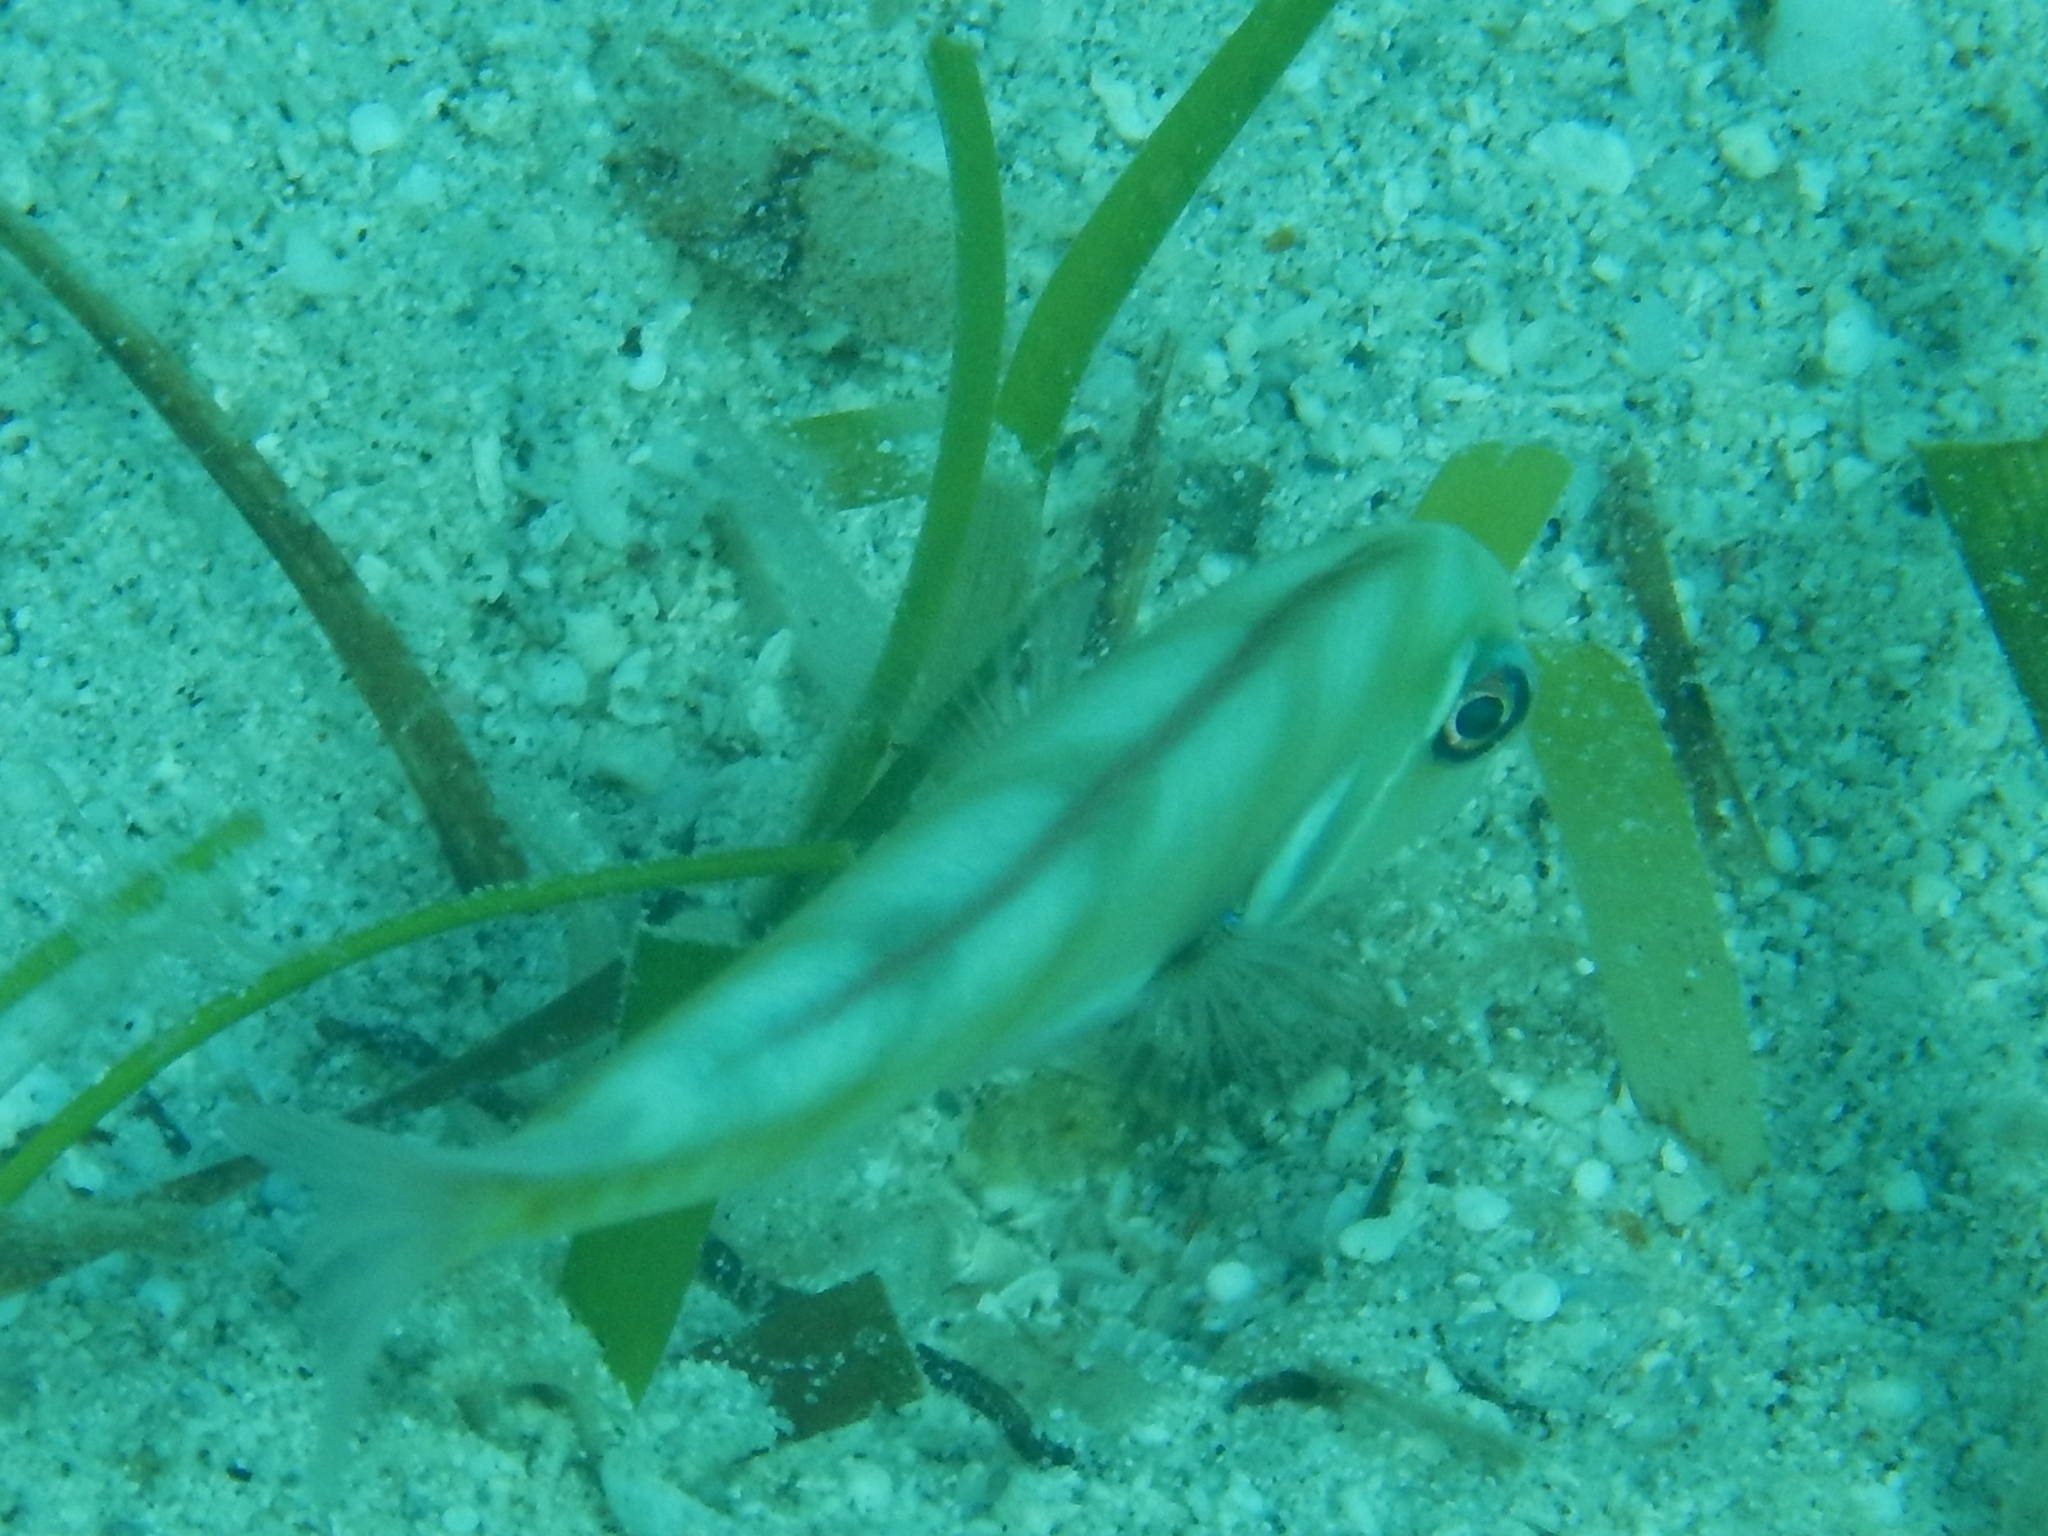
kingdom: Animalia
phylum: Chordata
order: Perciformes
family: Labridae
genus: Xyrichtys
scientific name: Xyrichtys martinicensis
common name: Rosy razorfish
